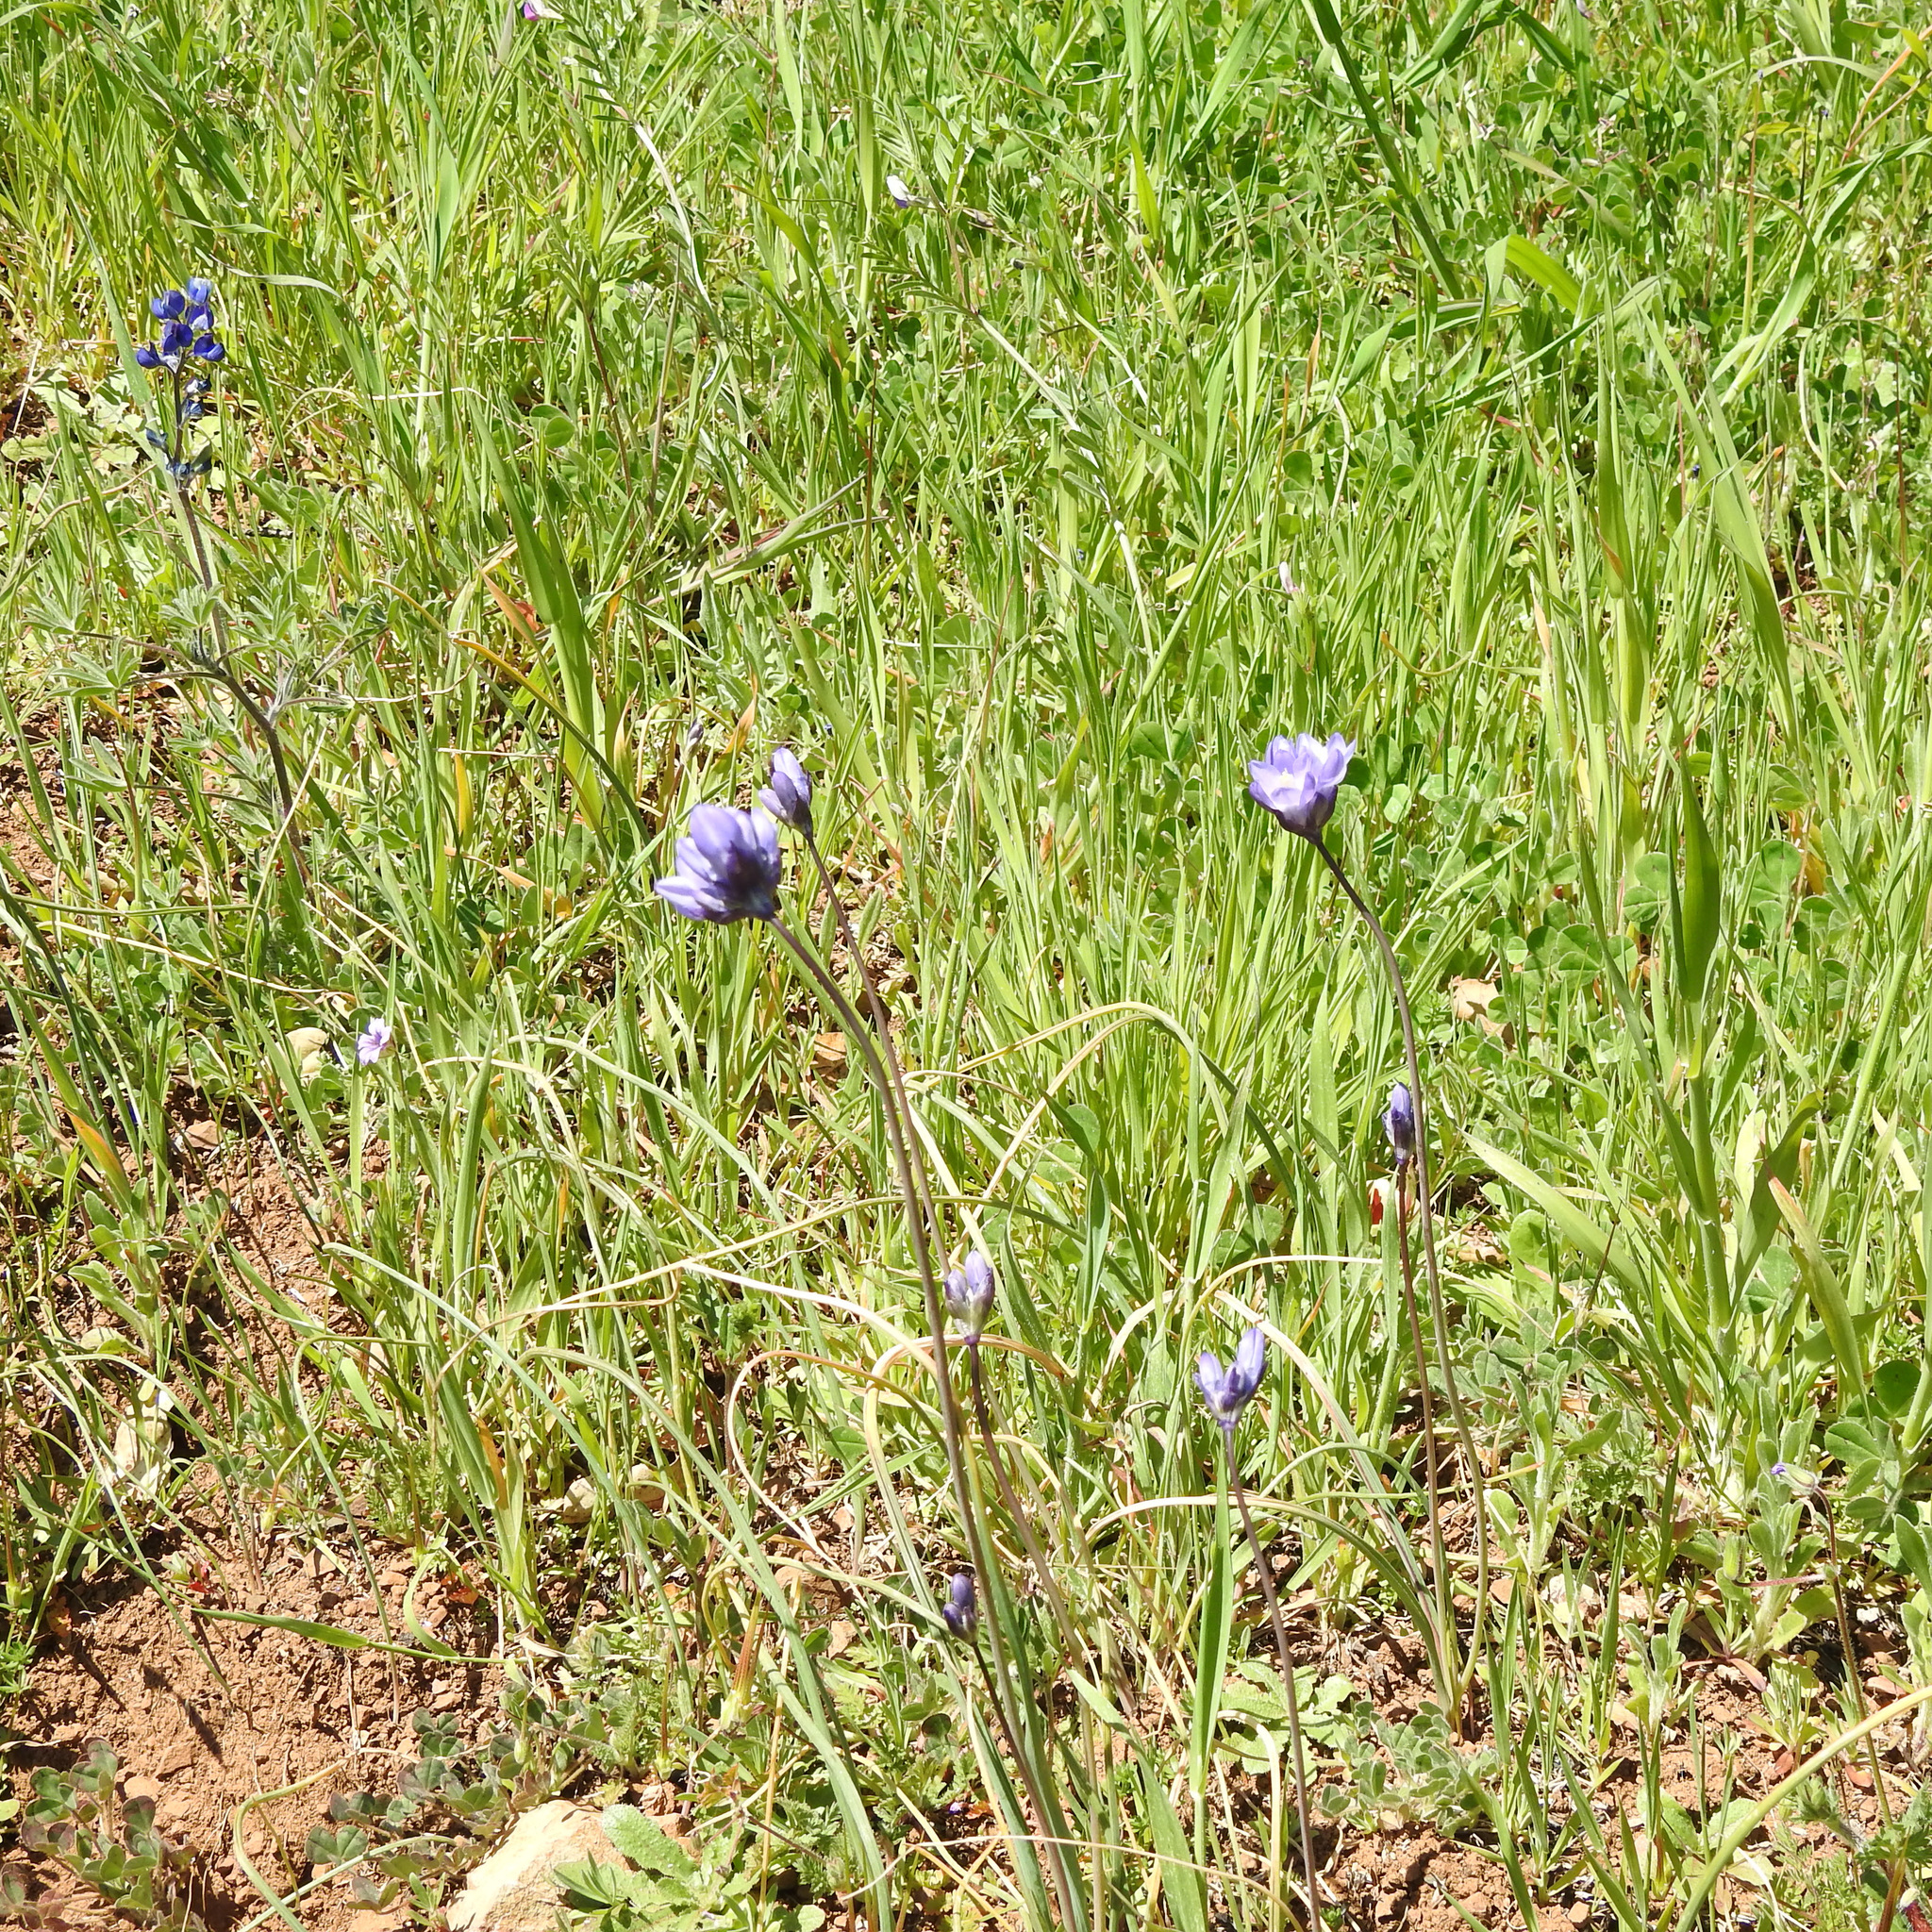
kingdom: Plantae
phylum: Tracheophyta
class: Liliopsida
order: Asparagales
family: Asparagaceae
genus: Dipterostemon
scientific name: Dipterostemon capitatus
